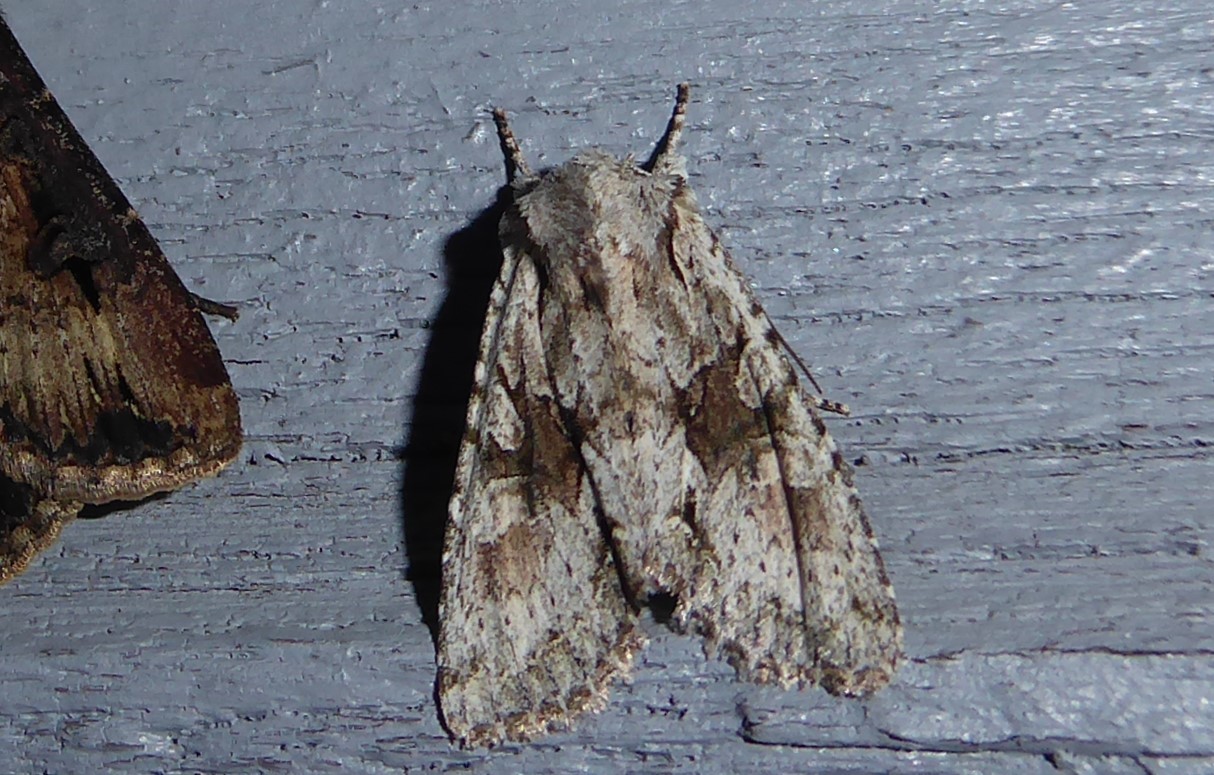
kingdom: Animalia
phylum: Arthropoda
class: Insecta
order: Lepidoptera
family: Noctuidae
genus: Ichneutica
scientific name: Ichneutica mutans
